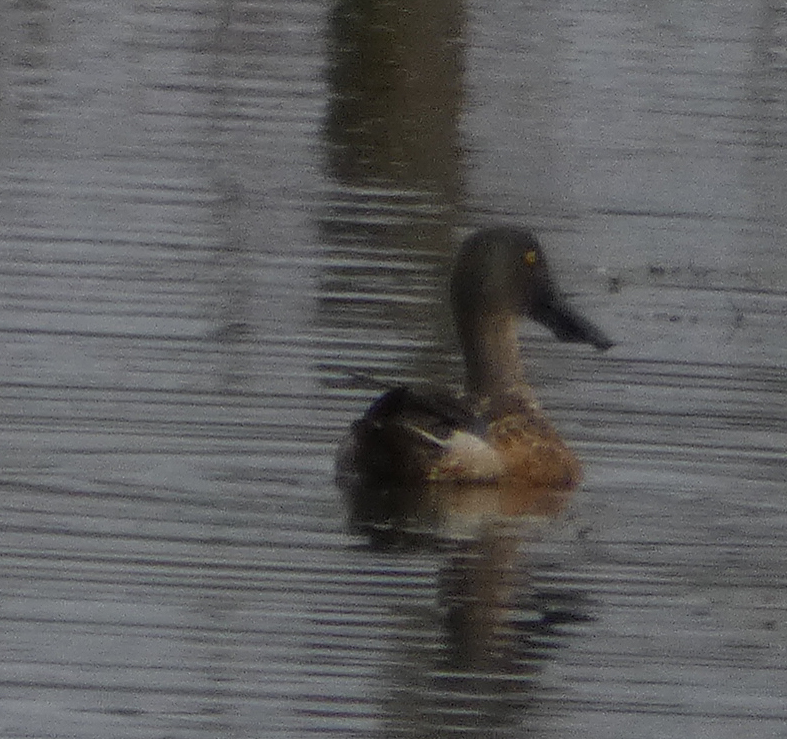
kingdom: Animalia
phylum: Chordata
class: Aves
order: Anseriformes
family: Anatidae
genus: Spatula
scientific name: Spatula clypeata
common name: Northern shoveler
